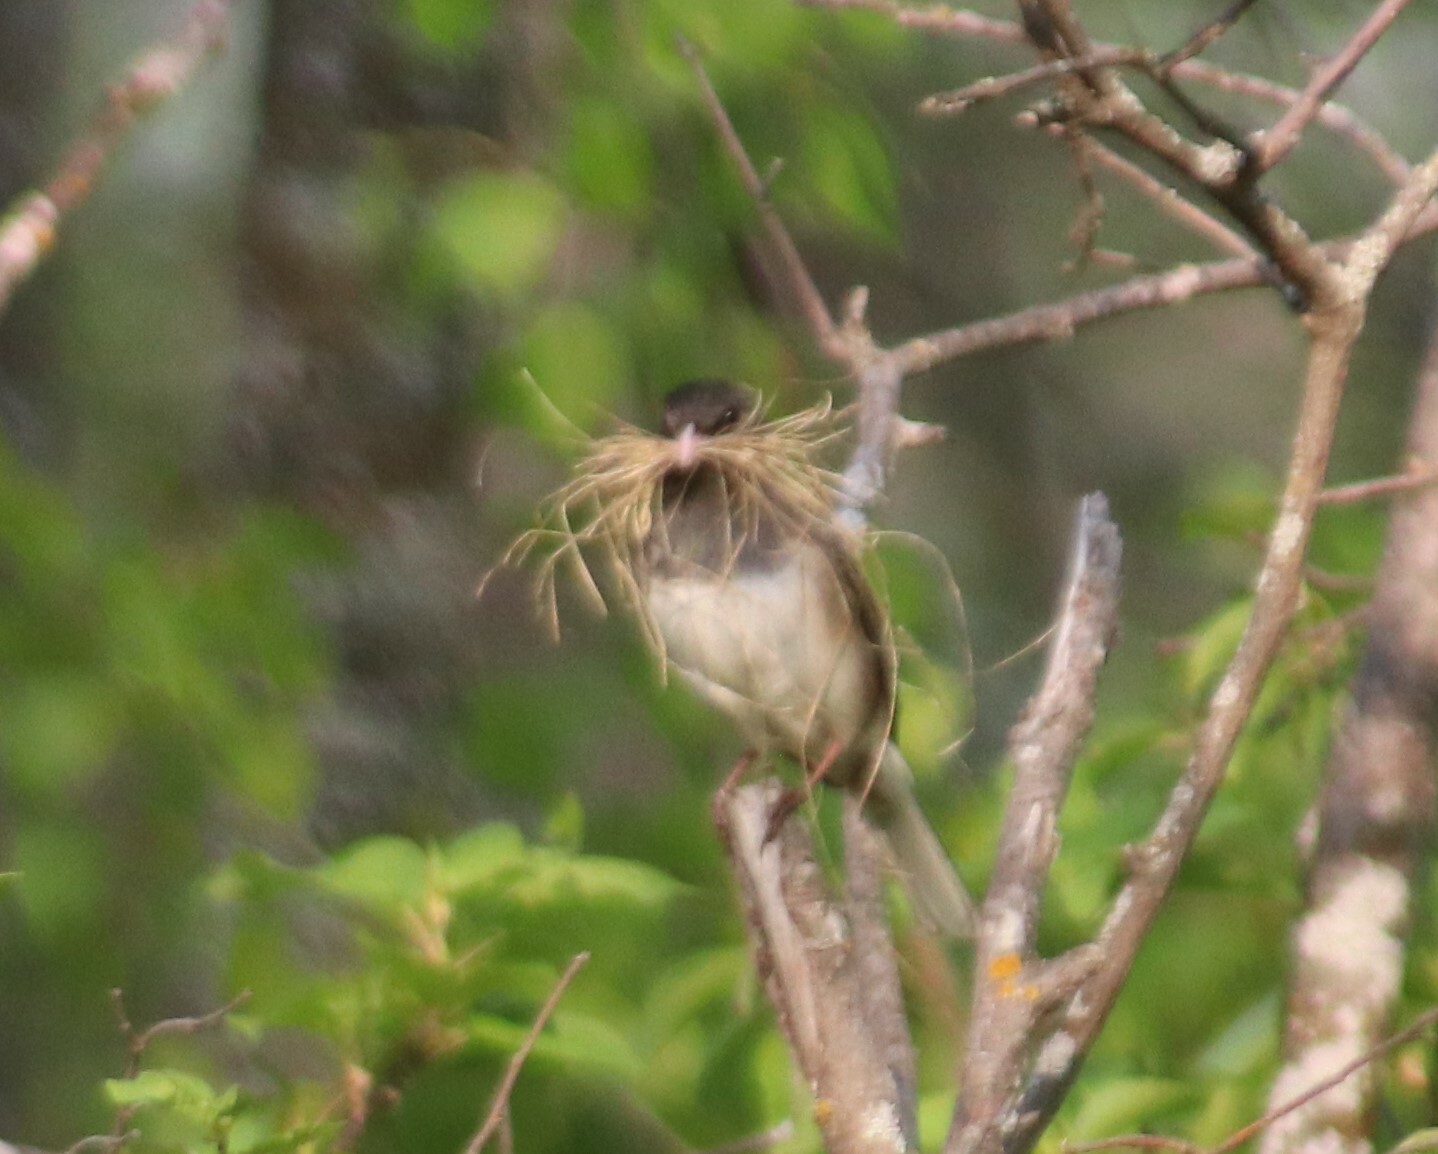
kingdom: Animalia
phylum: Chordata
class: Aves
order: Passeriformes
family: Passerellidae
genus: Junco
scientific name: Junco hyemalis
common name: Dark-eyed junco
